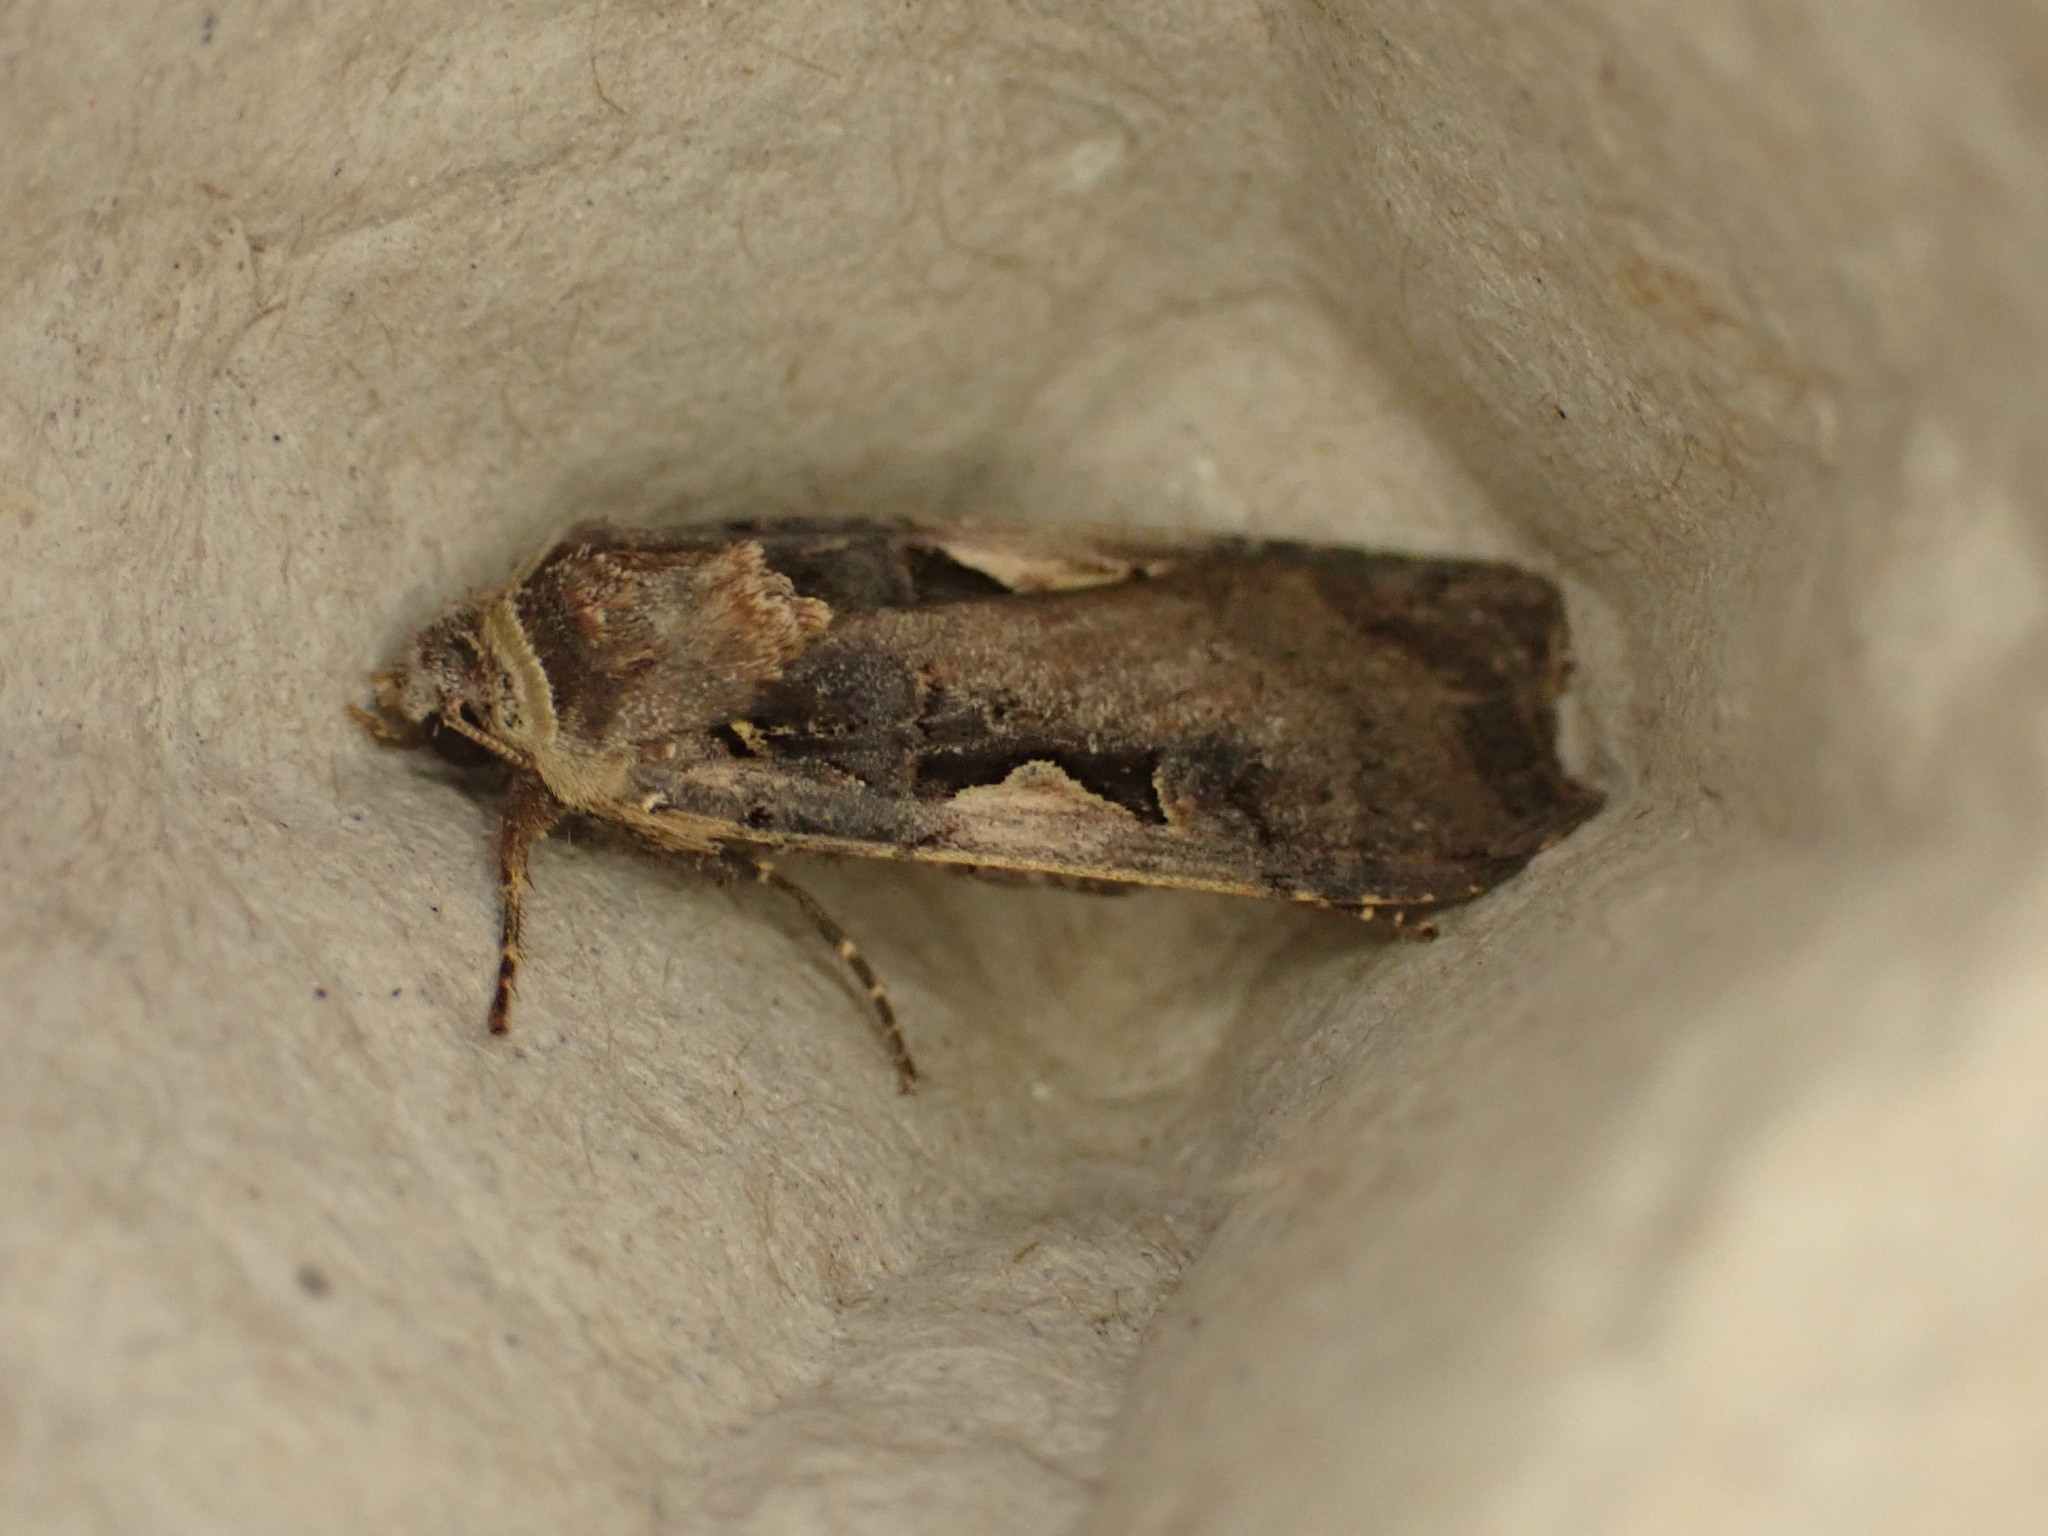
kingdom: Animalia
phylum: Arthropoda
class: Insecta
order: Lepidoptera
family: Noctuidae
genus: Xestia
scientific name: Xestia c-nigrum
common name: Setaceous hebrew character
